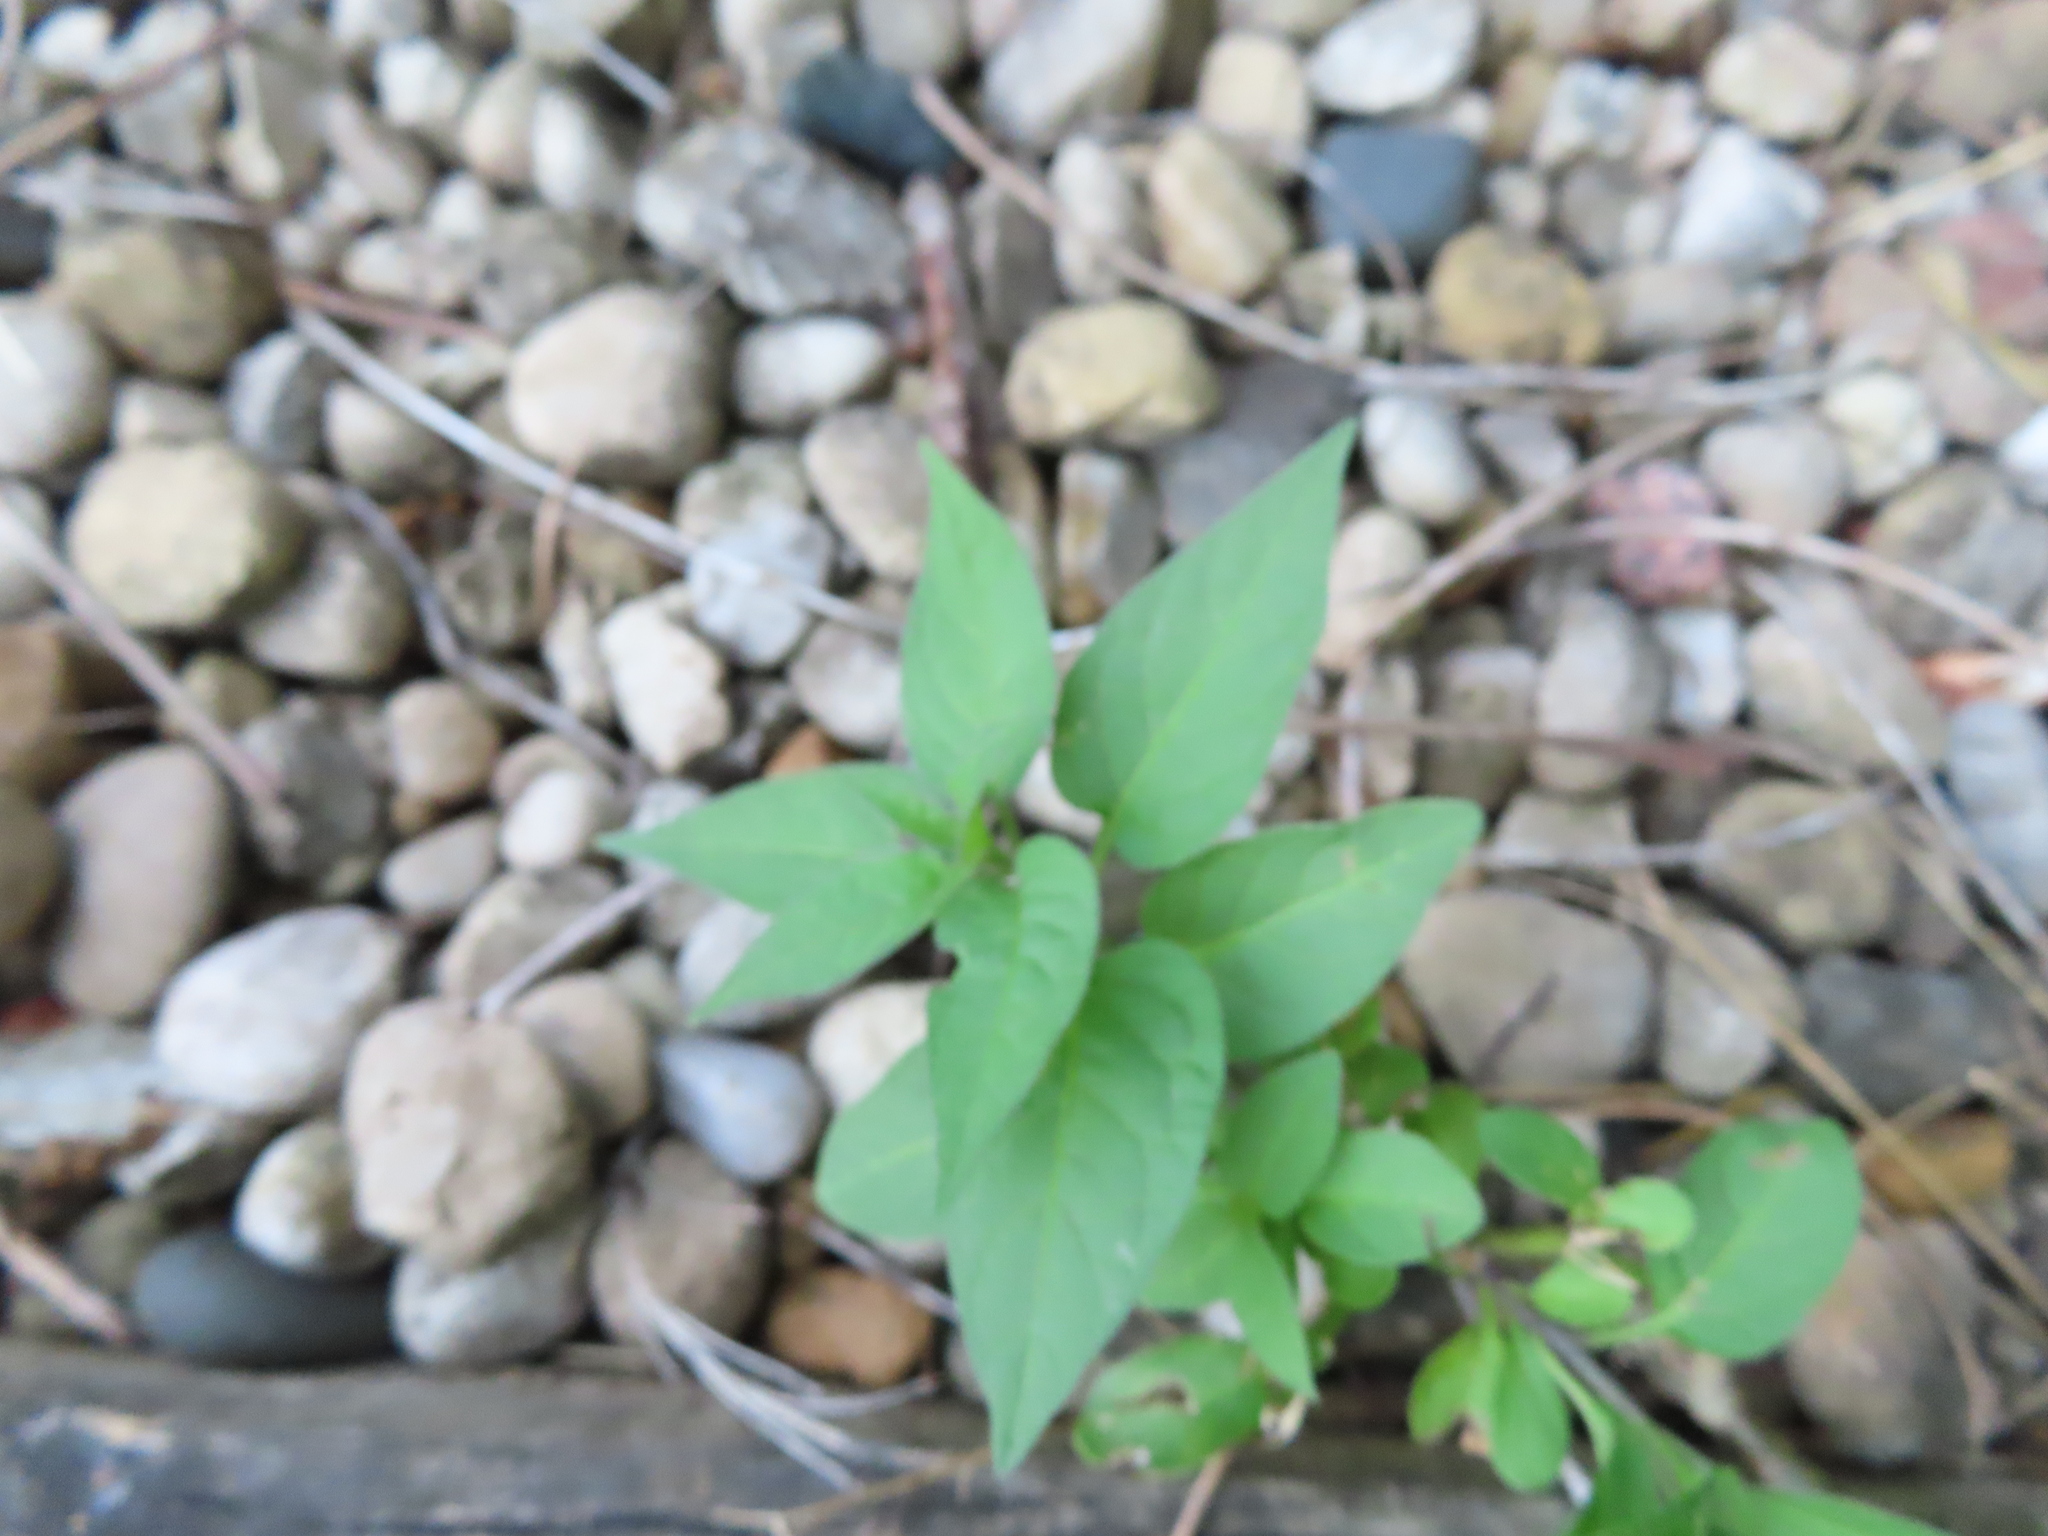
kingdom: Plantae
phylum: Tracheophyta
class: Magnoliopsida
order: Solanales
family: Solanaceae
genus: Solanum
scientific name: Solanum dulcamara
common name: Climbing nightshade
